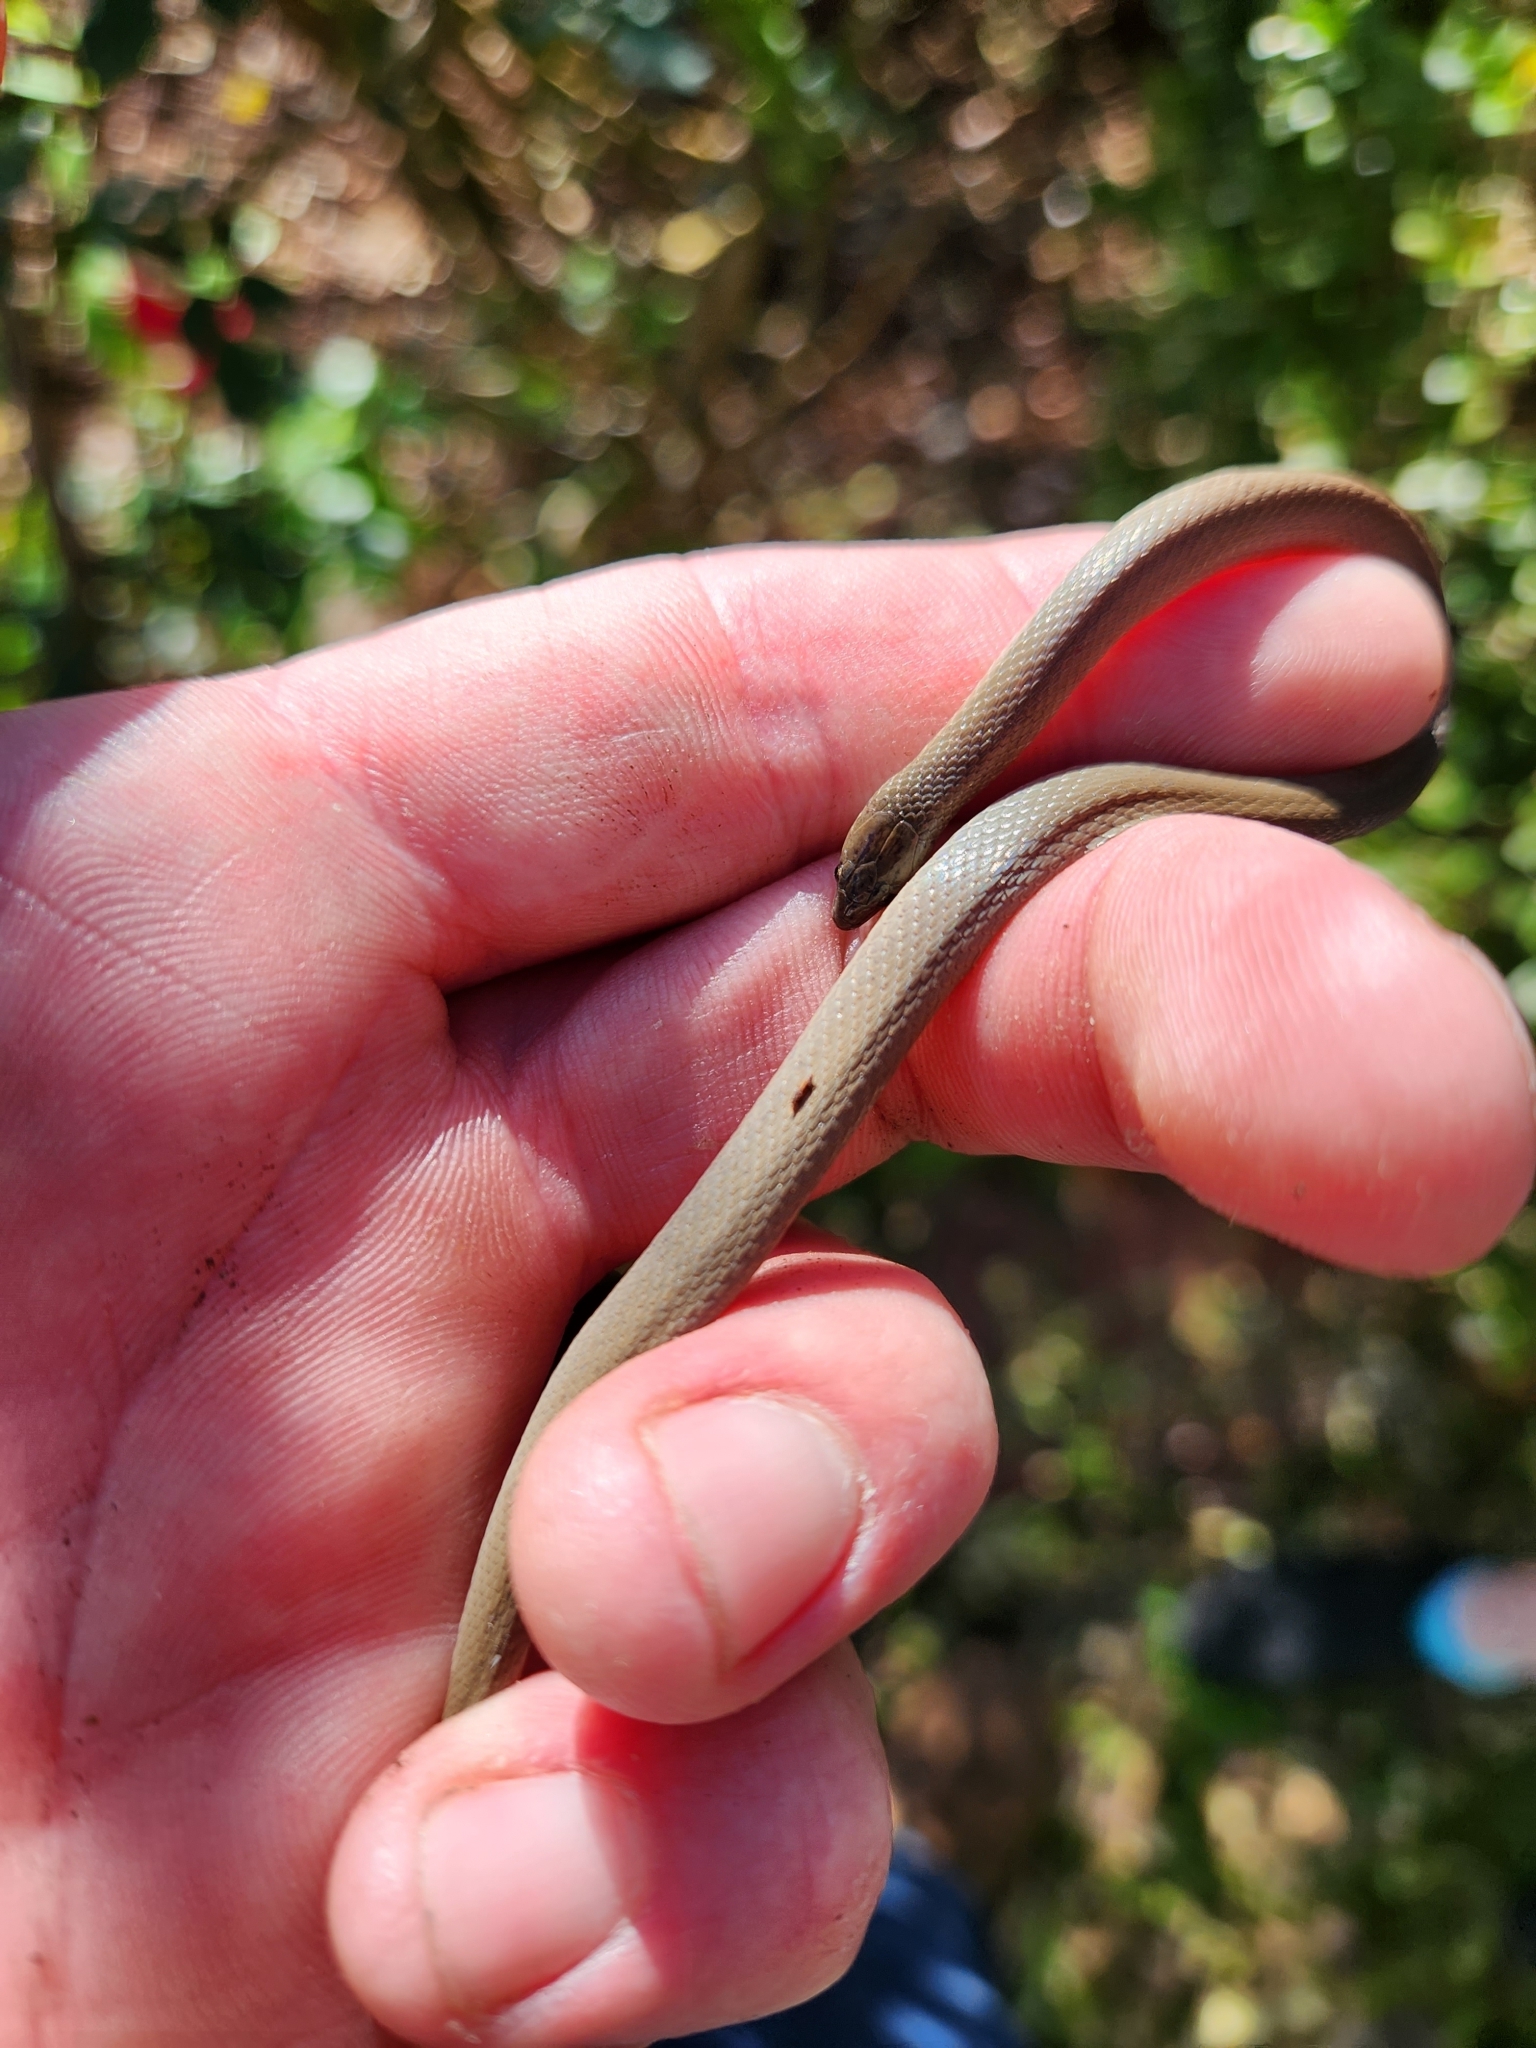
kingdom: Animalia
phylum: Chordata
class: Squamata
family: Colubridae
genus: Haldea
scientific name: Haldea striatula
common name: Rough earth snake
